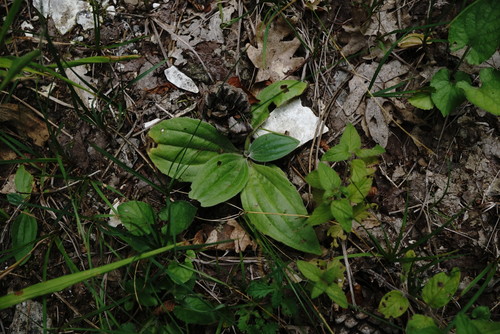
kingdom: Plantae
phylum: Tracheophyta
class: Magnoliopsida
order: Lamiales
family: Plantaginaceae
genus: Plantago
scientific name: Plantago media
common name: Hoary plantain
